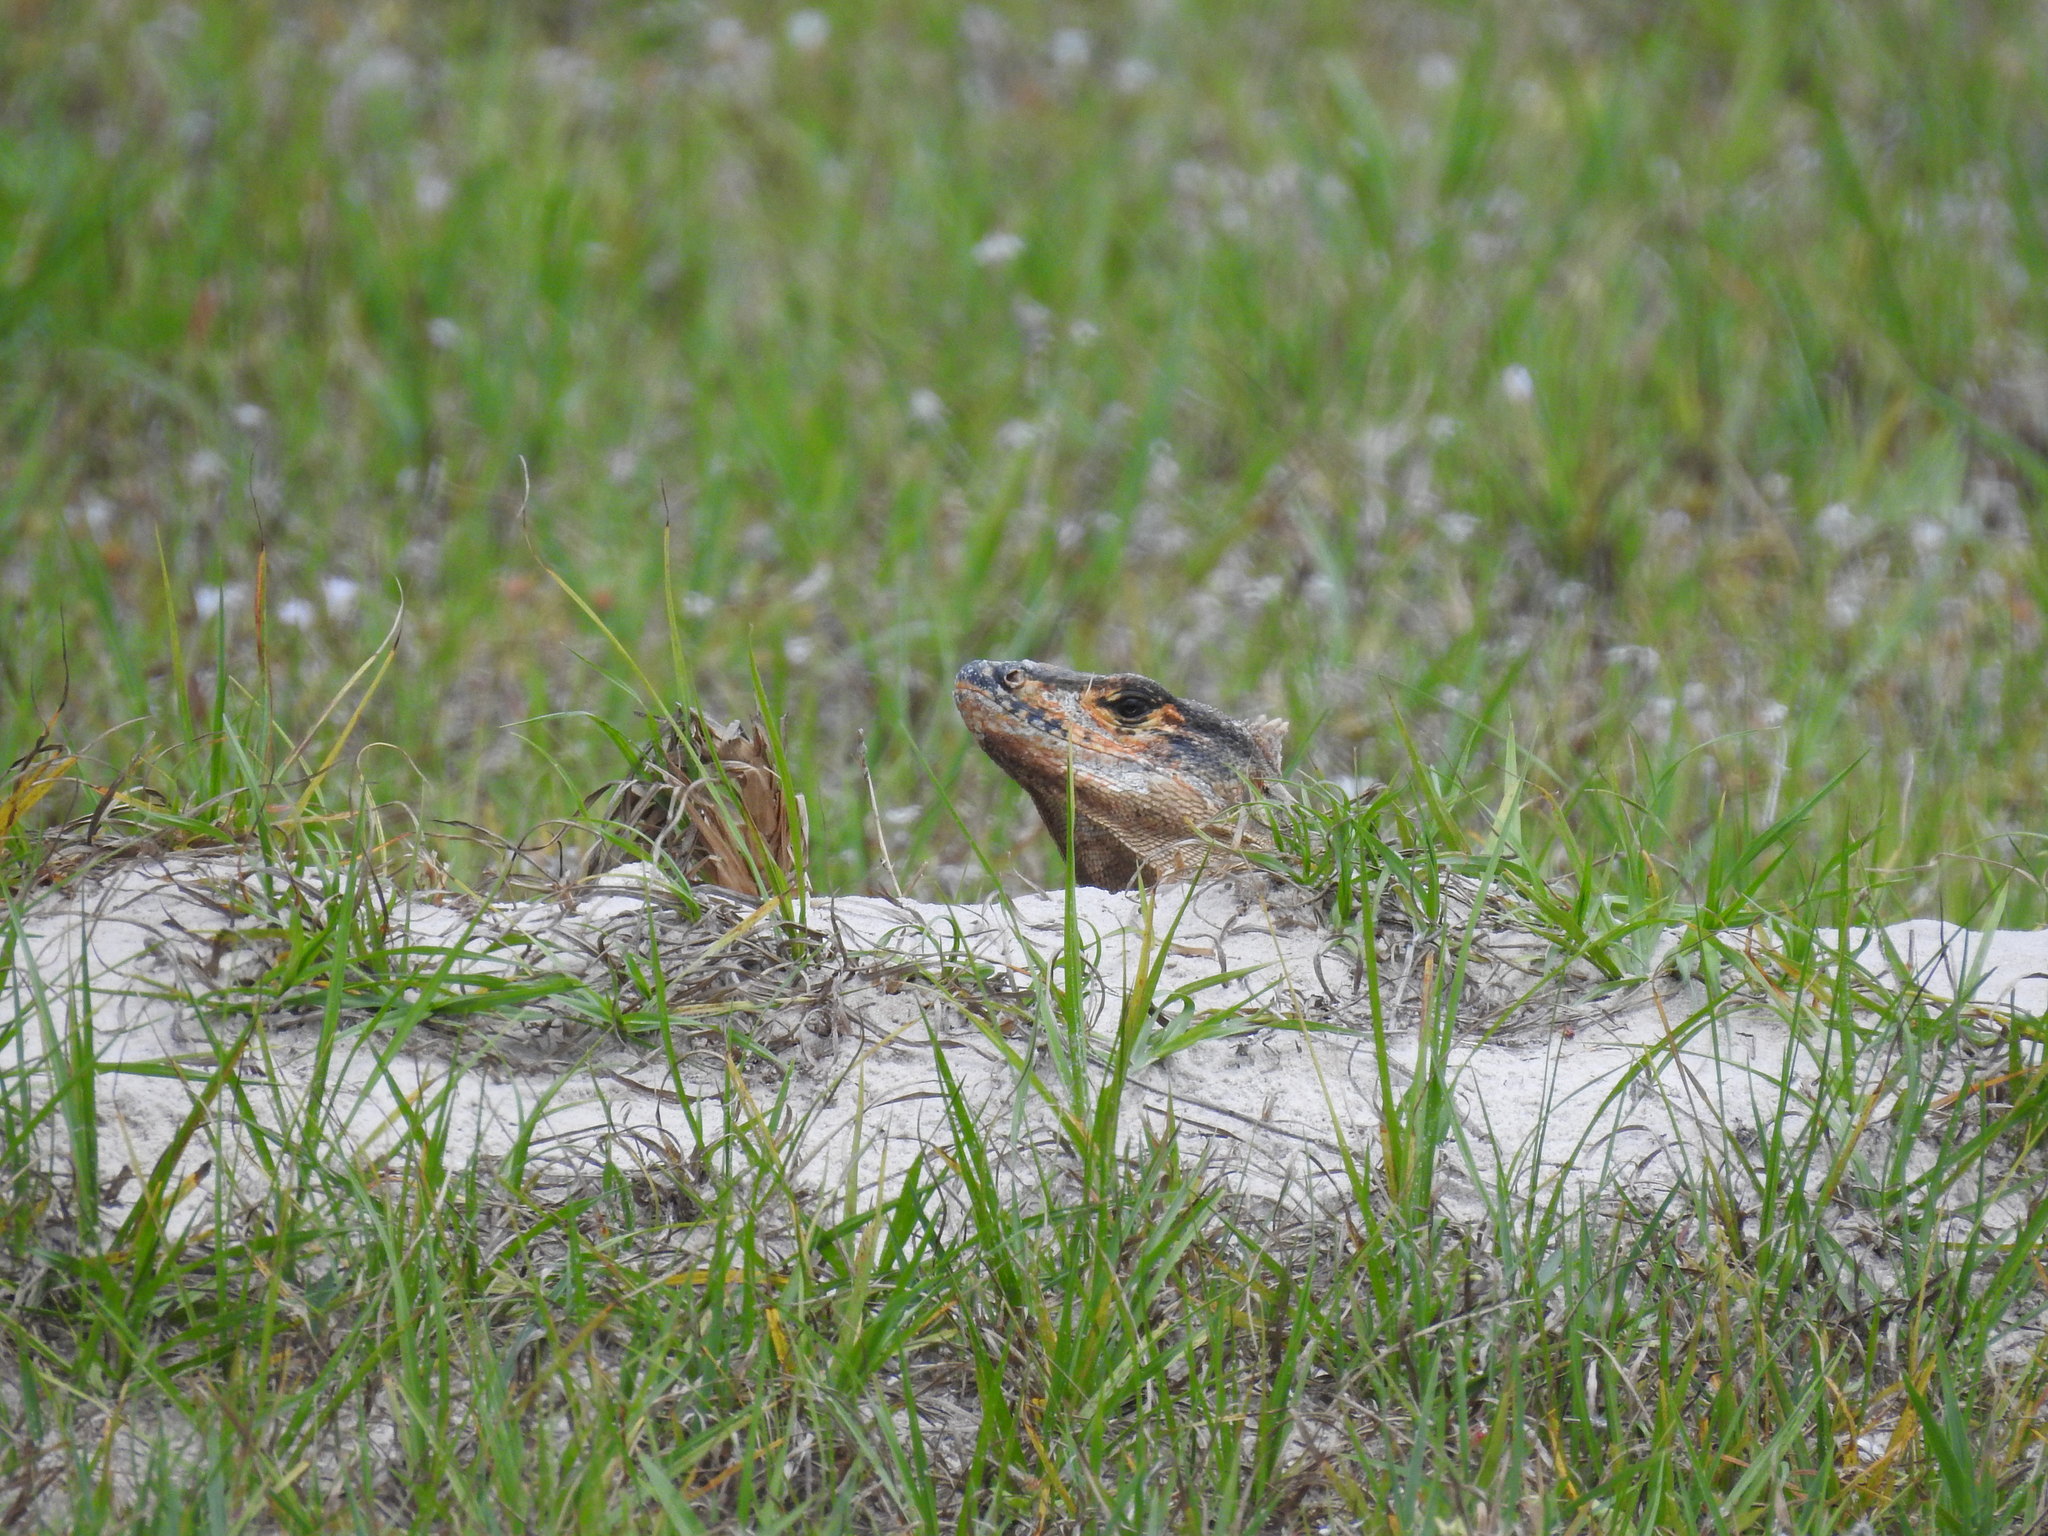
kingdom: Animalia
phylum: Chordata
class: Squamata
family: Iguanidae
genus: Ctenosaura
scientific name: Ctenosaura similis
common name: Black spiny-tailed iguana
